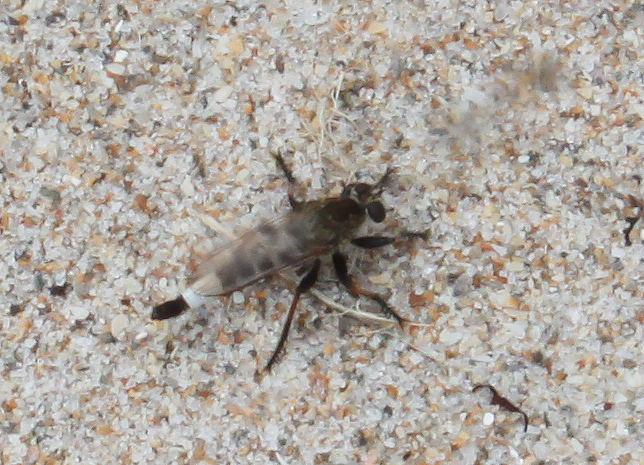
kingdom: Animalia
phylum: Arthropoda
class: Insecta
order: Diptera
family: Asilidae
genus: Efferia
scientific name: Efferia albibarbis
